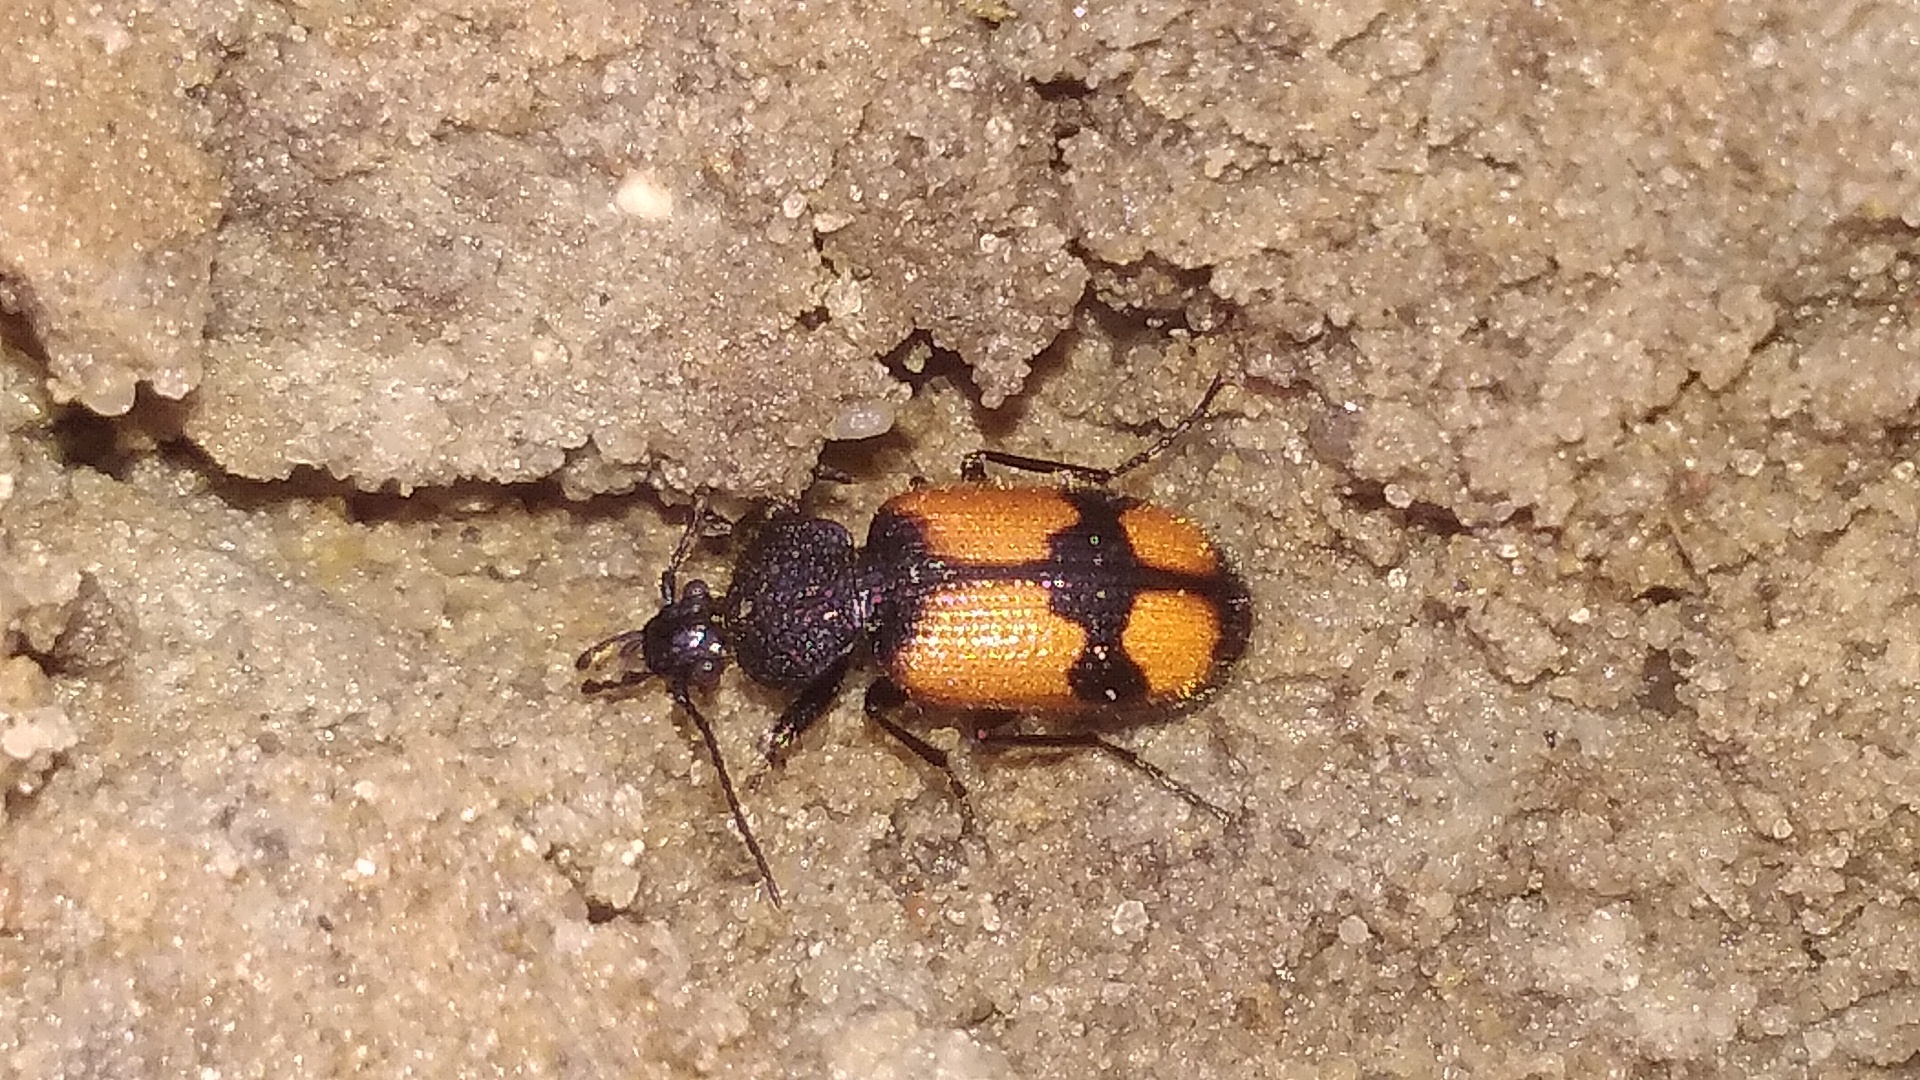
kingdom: Animalia
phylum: Arthropoda
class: Insecta
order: Coleoptera
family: Carabidae
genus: Panagaeus
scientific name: Panagaeus cruxmajor
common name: Crucifix ground beetle
